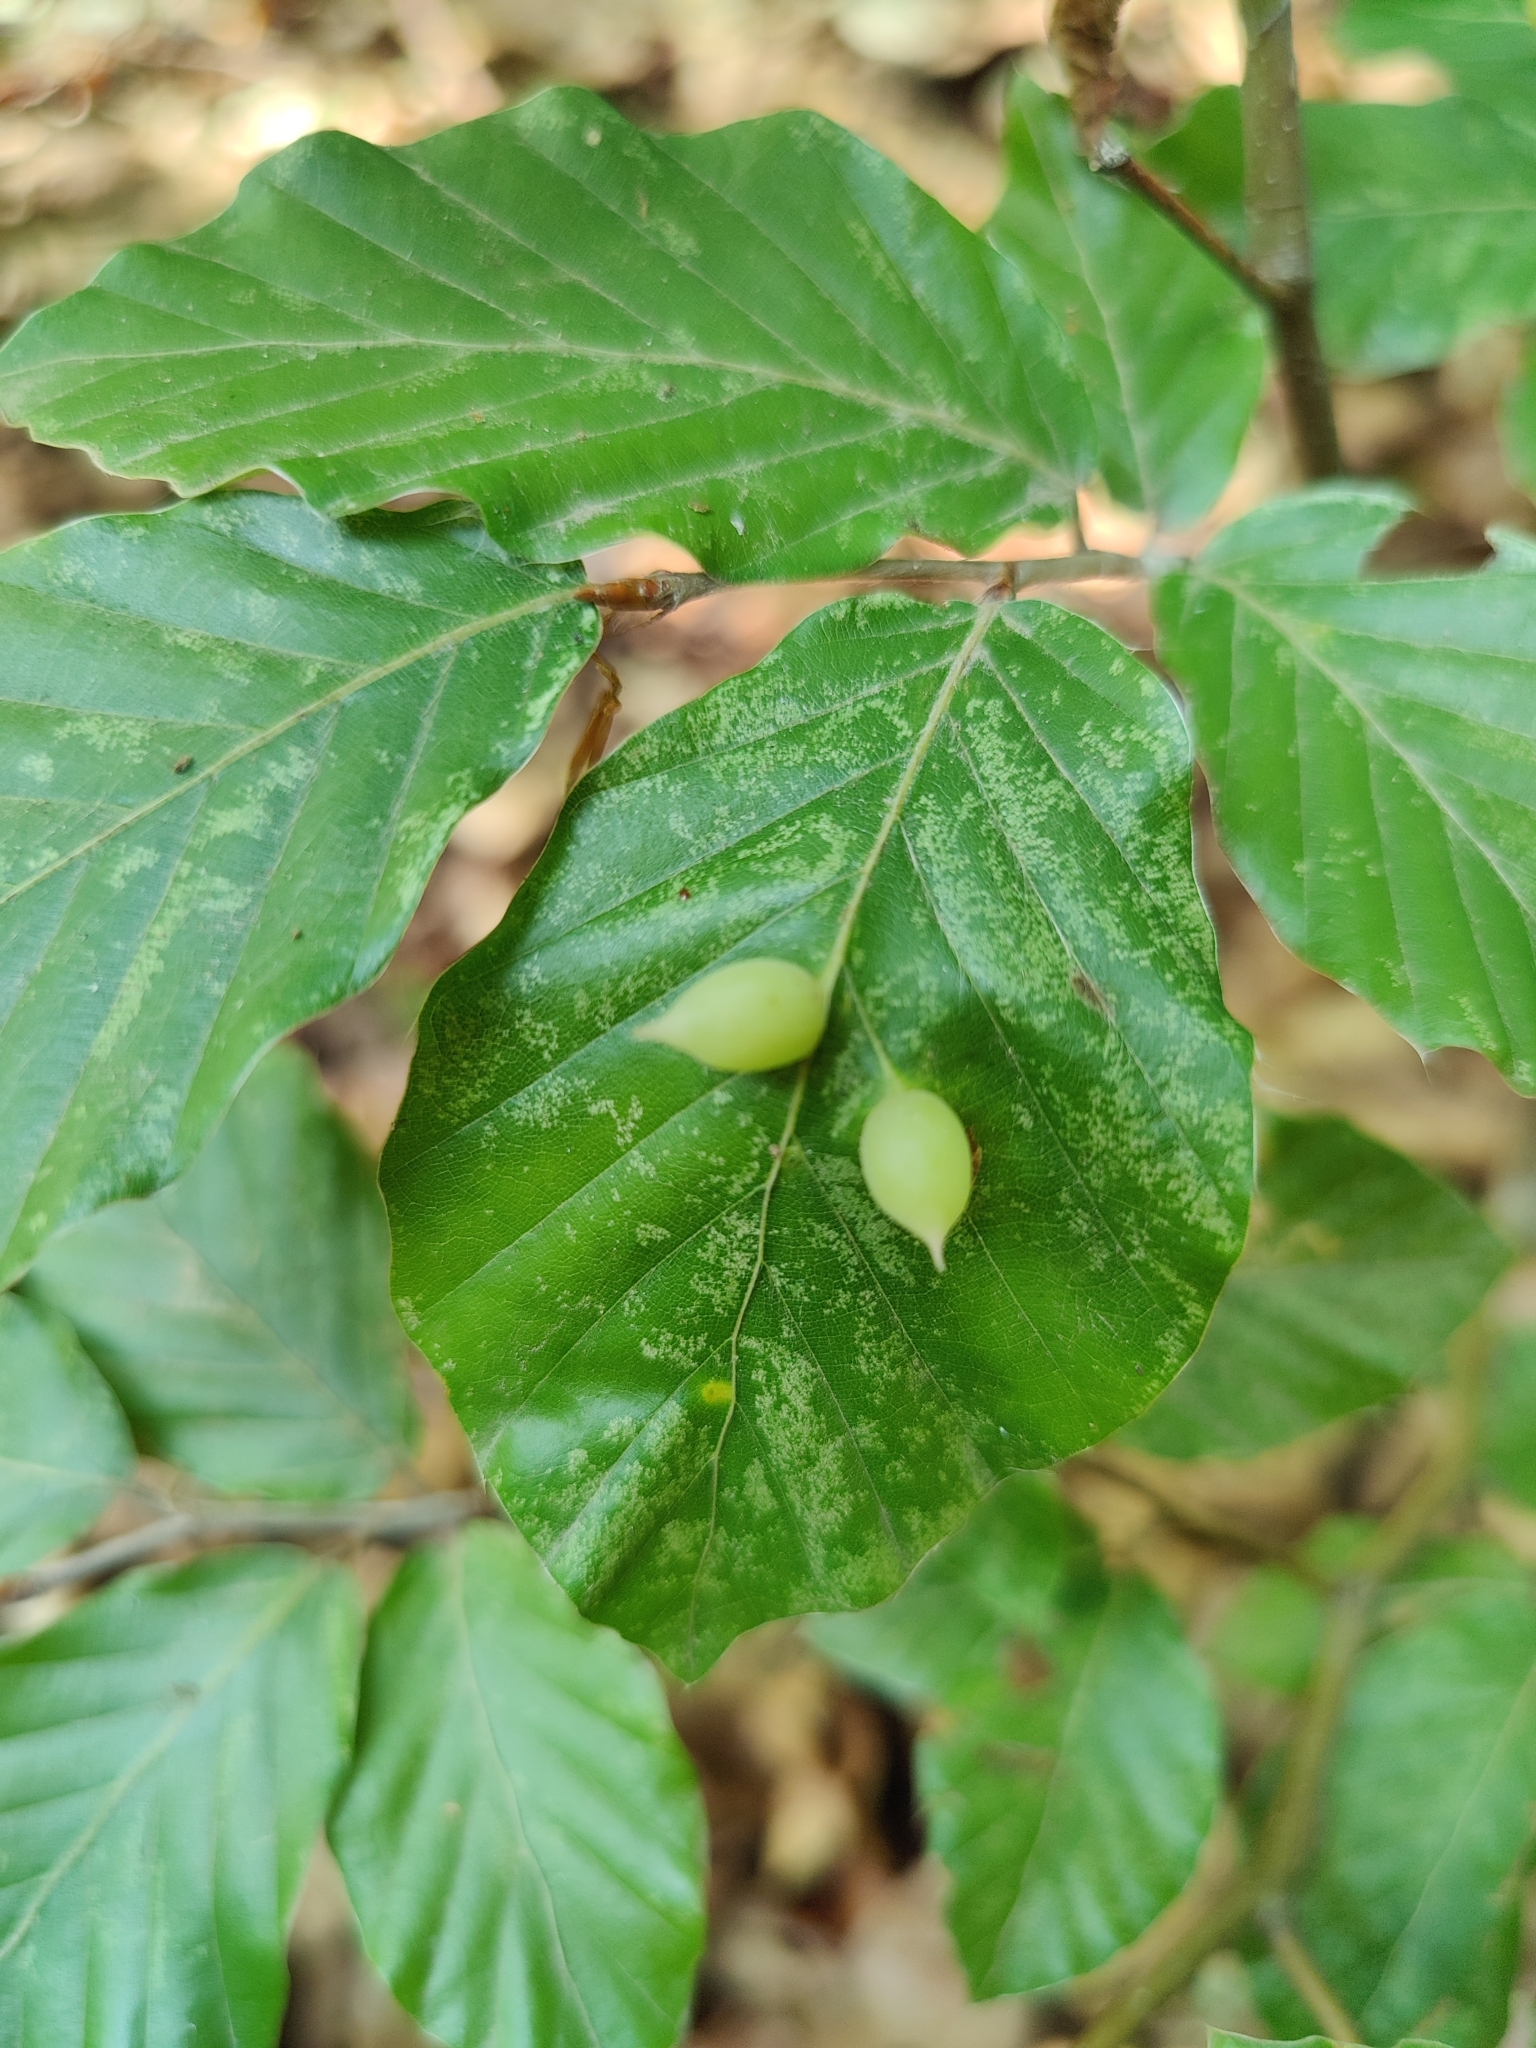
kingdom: Animalia
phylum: Arthropoda
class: Insecta
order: Diptera
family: Cecidomyiidae
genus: Mikiola
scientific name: Mikiola fagi
